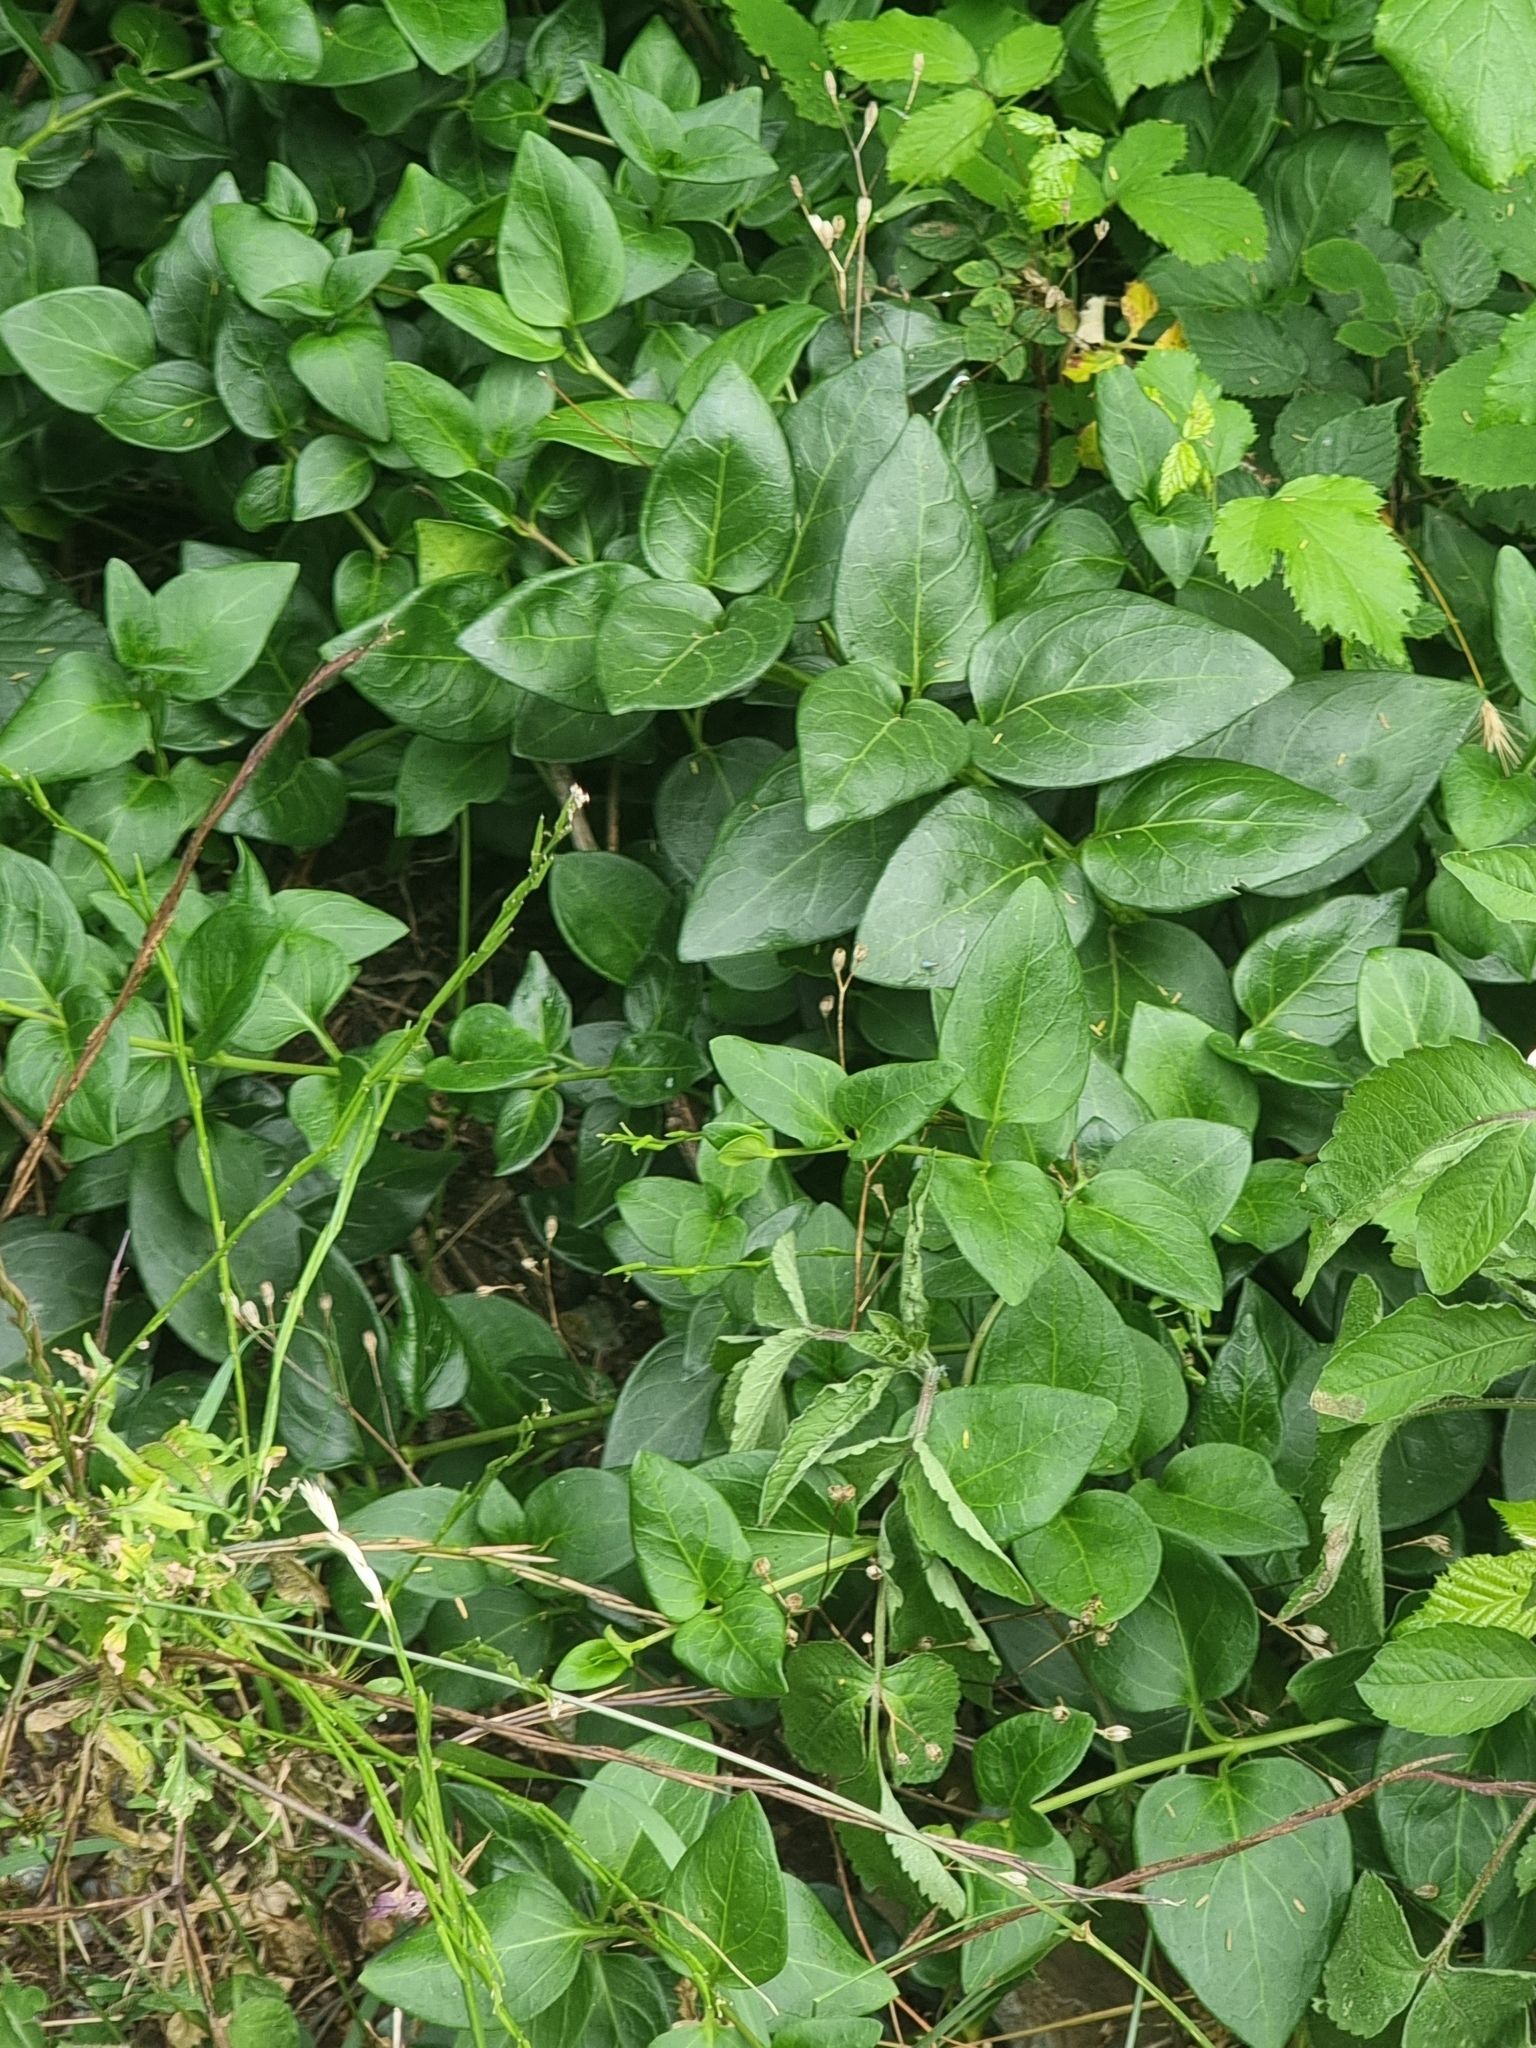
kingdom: Plantae
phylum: Tracheophyta
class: Magnoliopsida
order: Gentianales
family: Apocynaceae
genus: Vinca
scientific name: Vinca major
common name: Greater periwinkle
